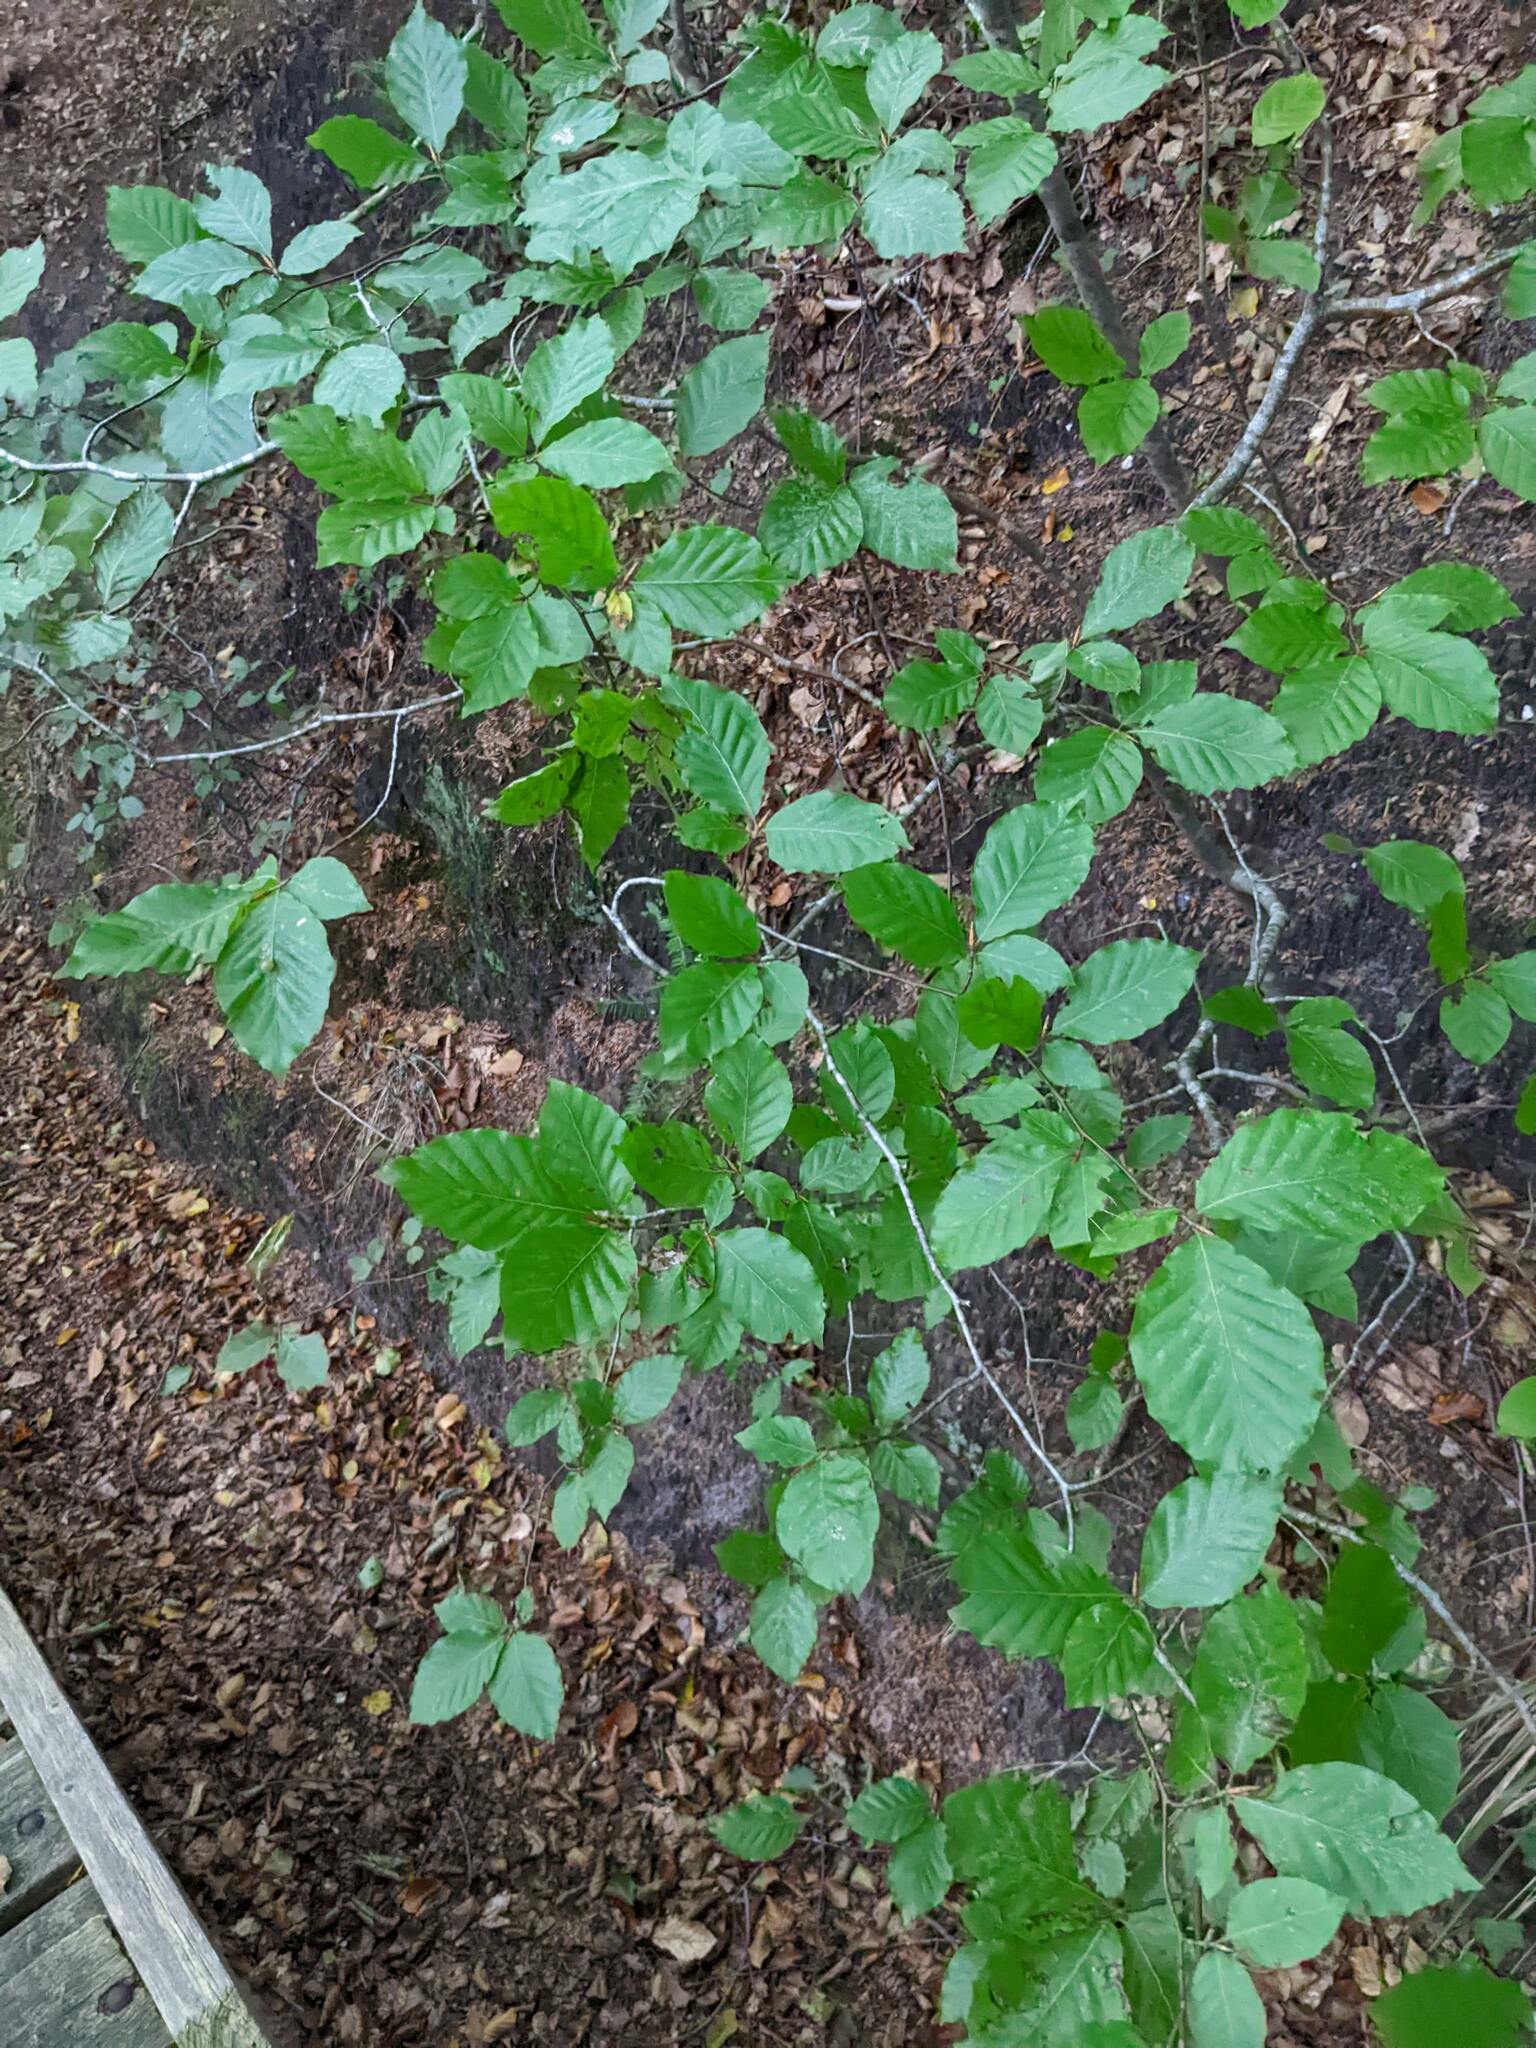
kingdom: Plantae
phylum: Tracheophyta
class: Magnoliopsida
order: Fagales
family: Fagaceae
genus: Fagus
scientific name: Fagus sylvatica
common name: Beech
